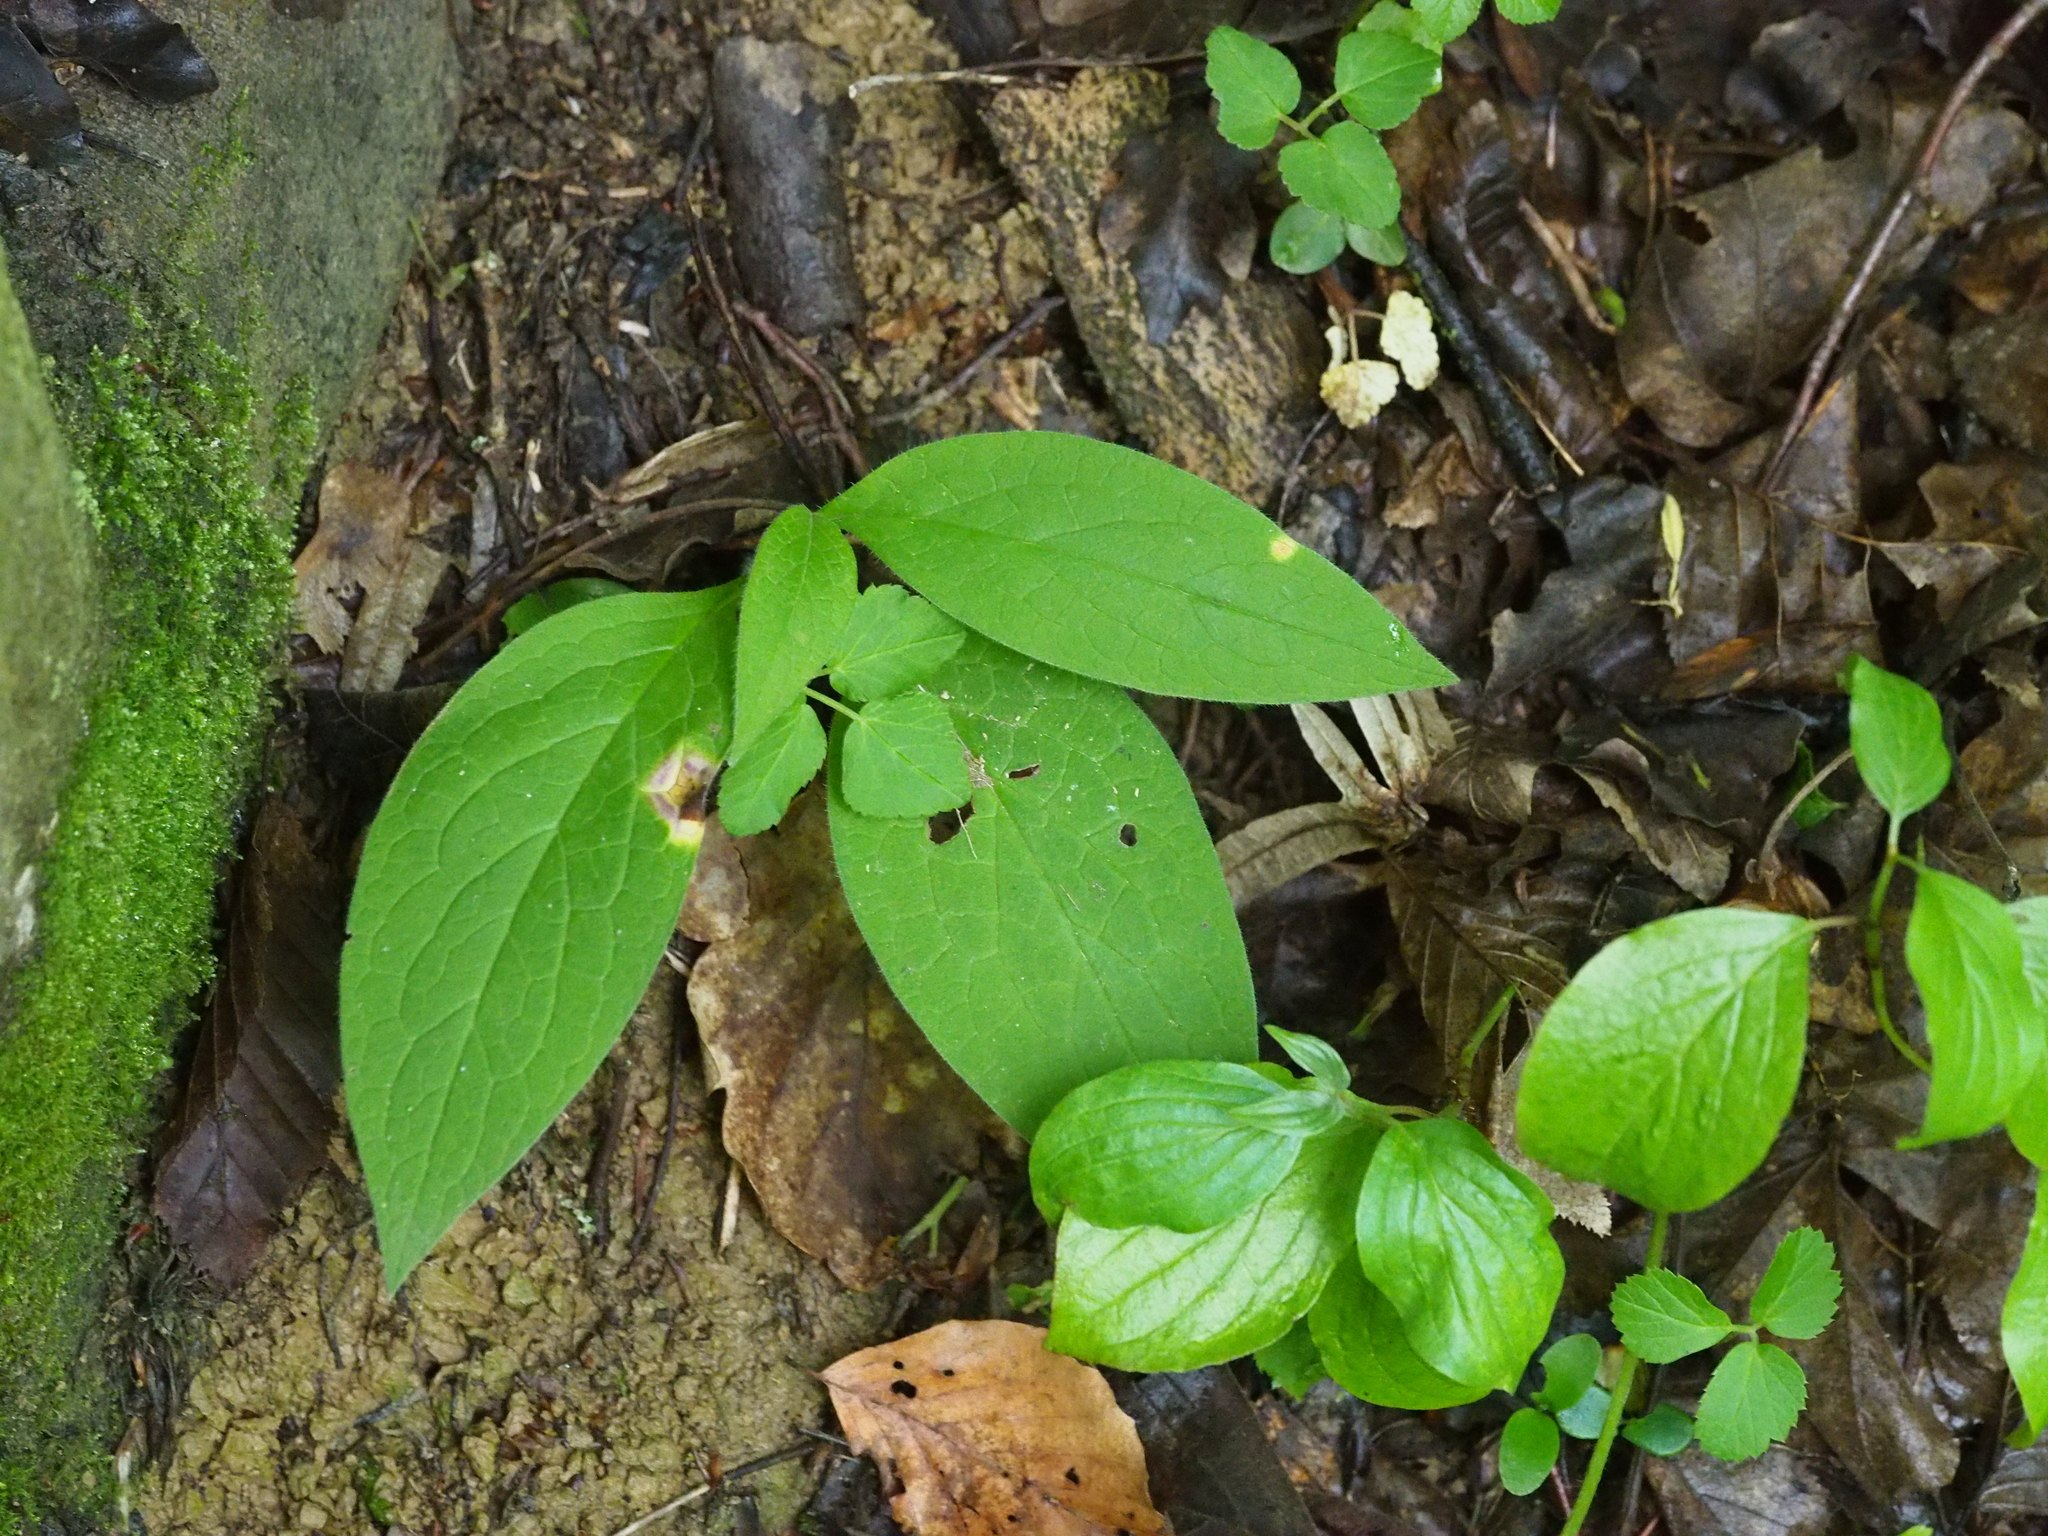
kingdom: Fungi
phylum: Basidiomycota
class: Pucciniomycetes
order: Pucciniales
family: Pucciniaceae
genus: Puccinia
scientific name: Puccinia bromina
